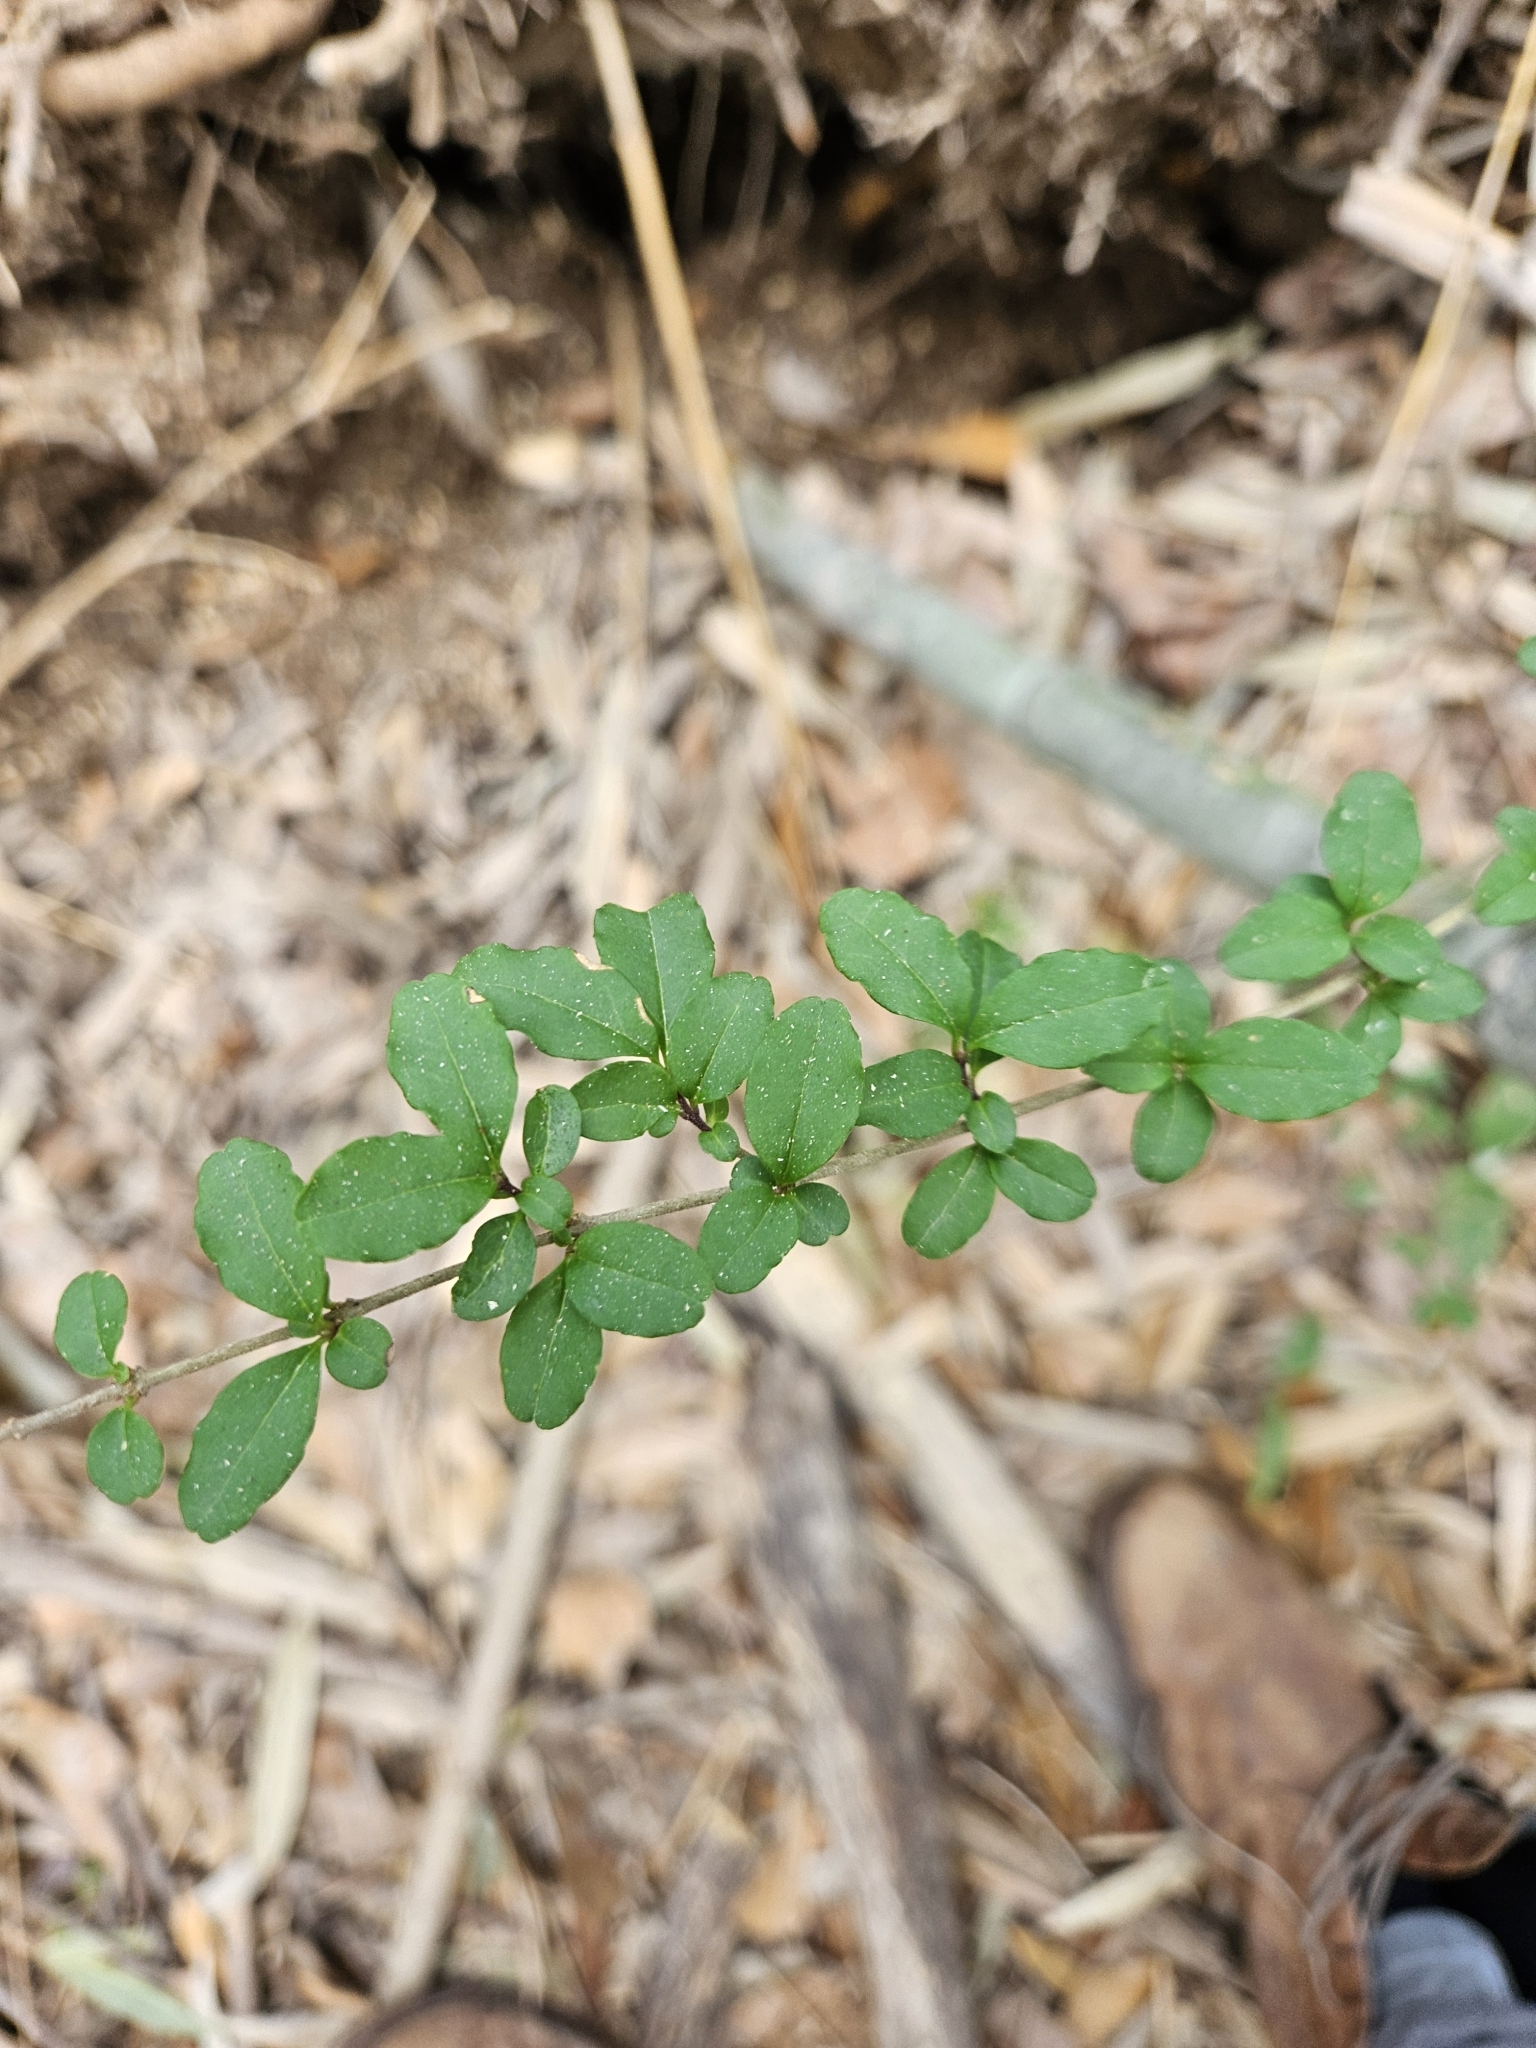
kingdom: Plantae
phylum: Tracheophyta
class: Magnoliopsida
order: Lamiales
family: Oleaceae
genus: Ligustrum
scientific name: Ligustrum sinense
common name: Chinese privet
